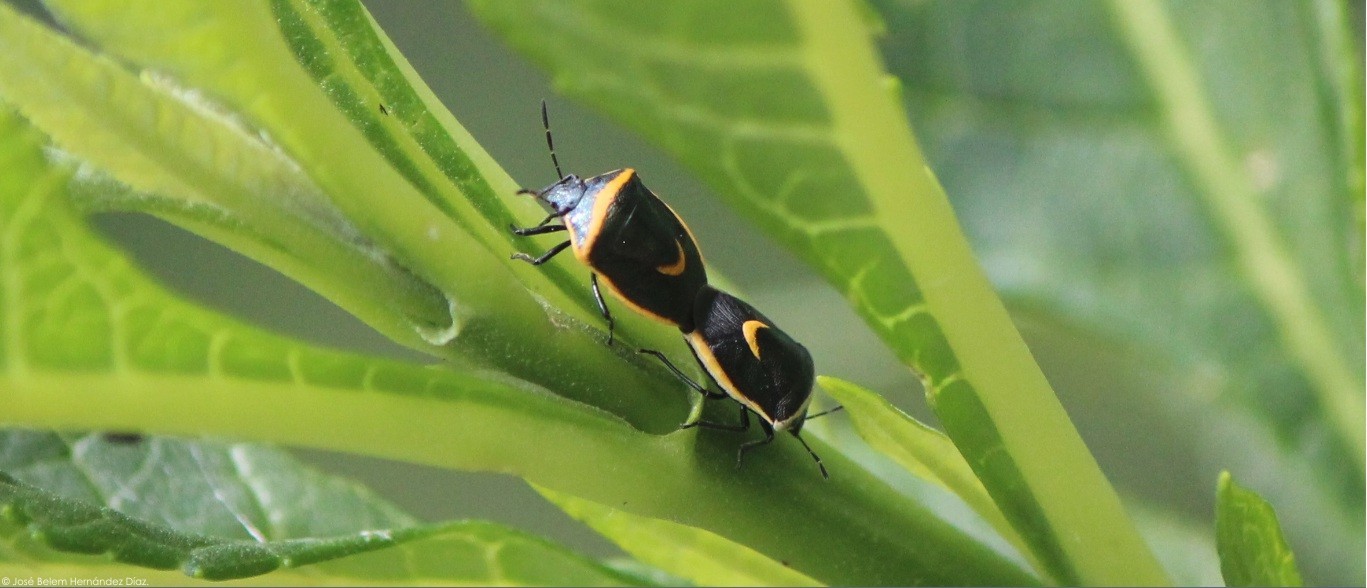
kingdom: Animalia
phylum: Arthropoda
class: Insecta
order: Hemiptera
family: Pentatomidae
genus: Cosmopepla
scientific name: Cosmopepla decorata
